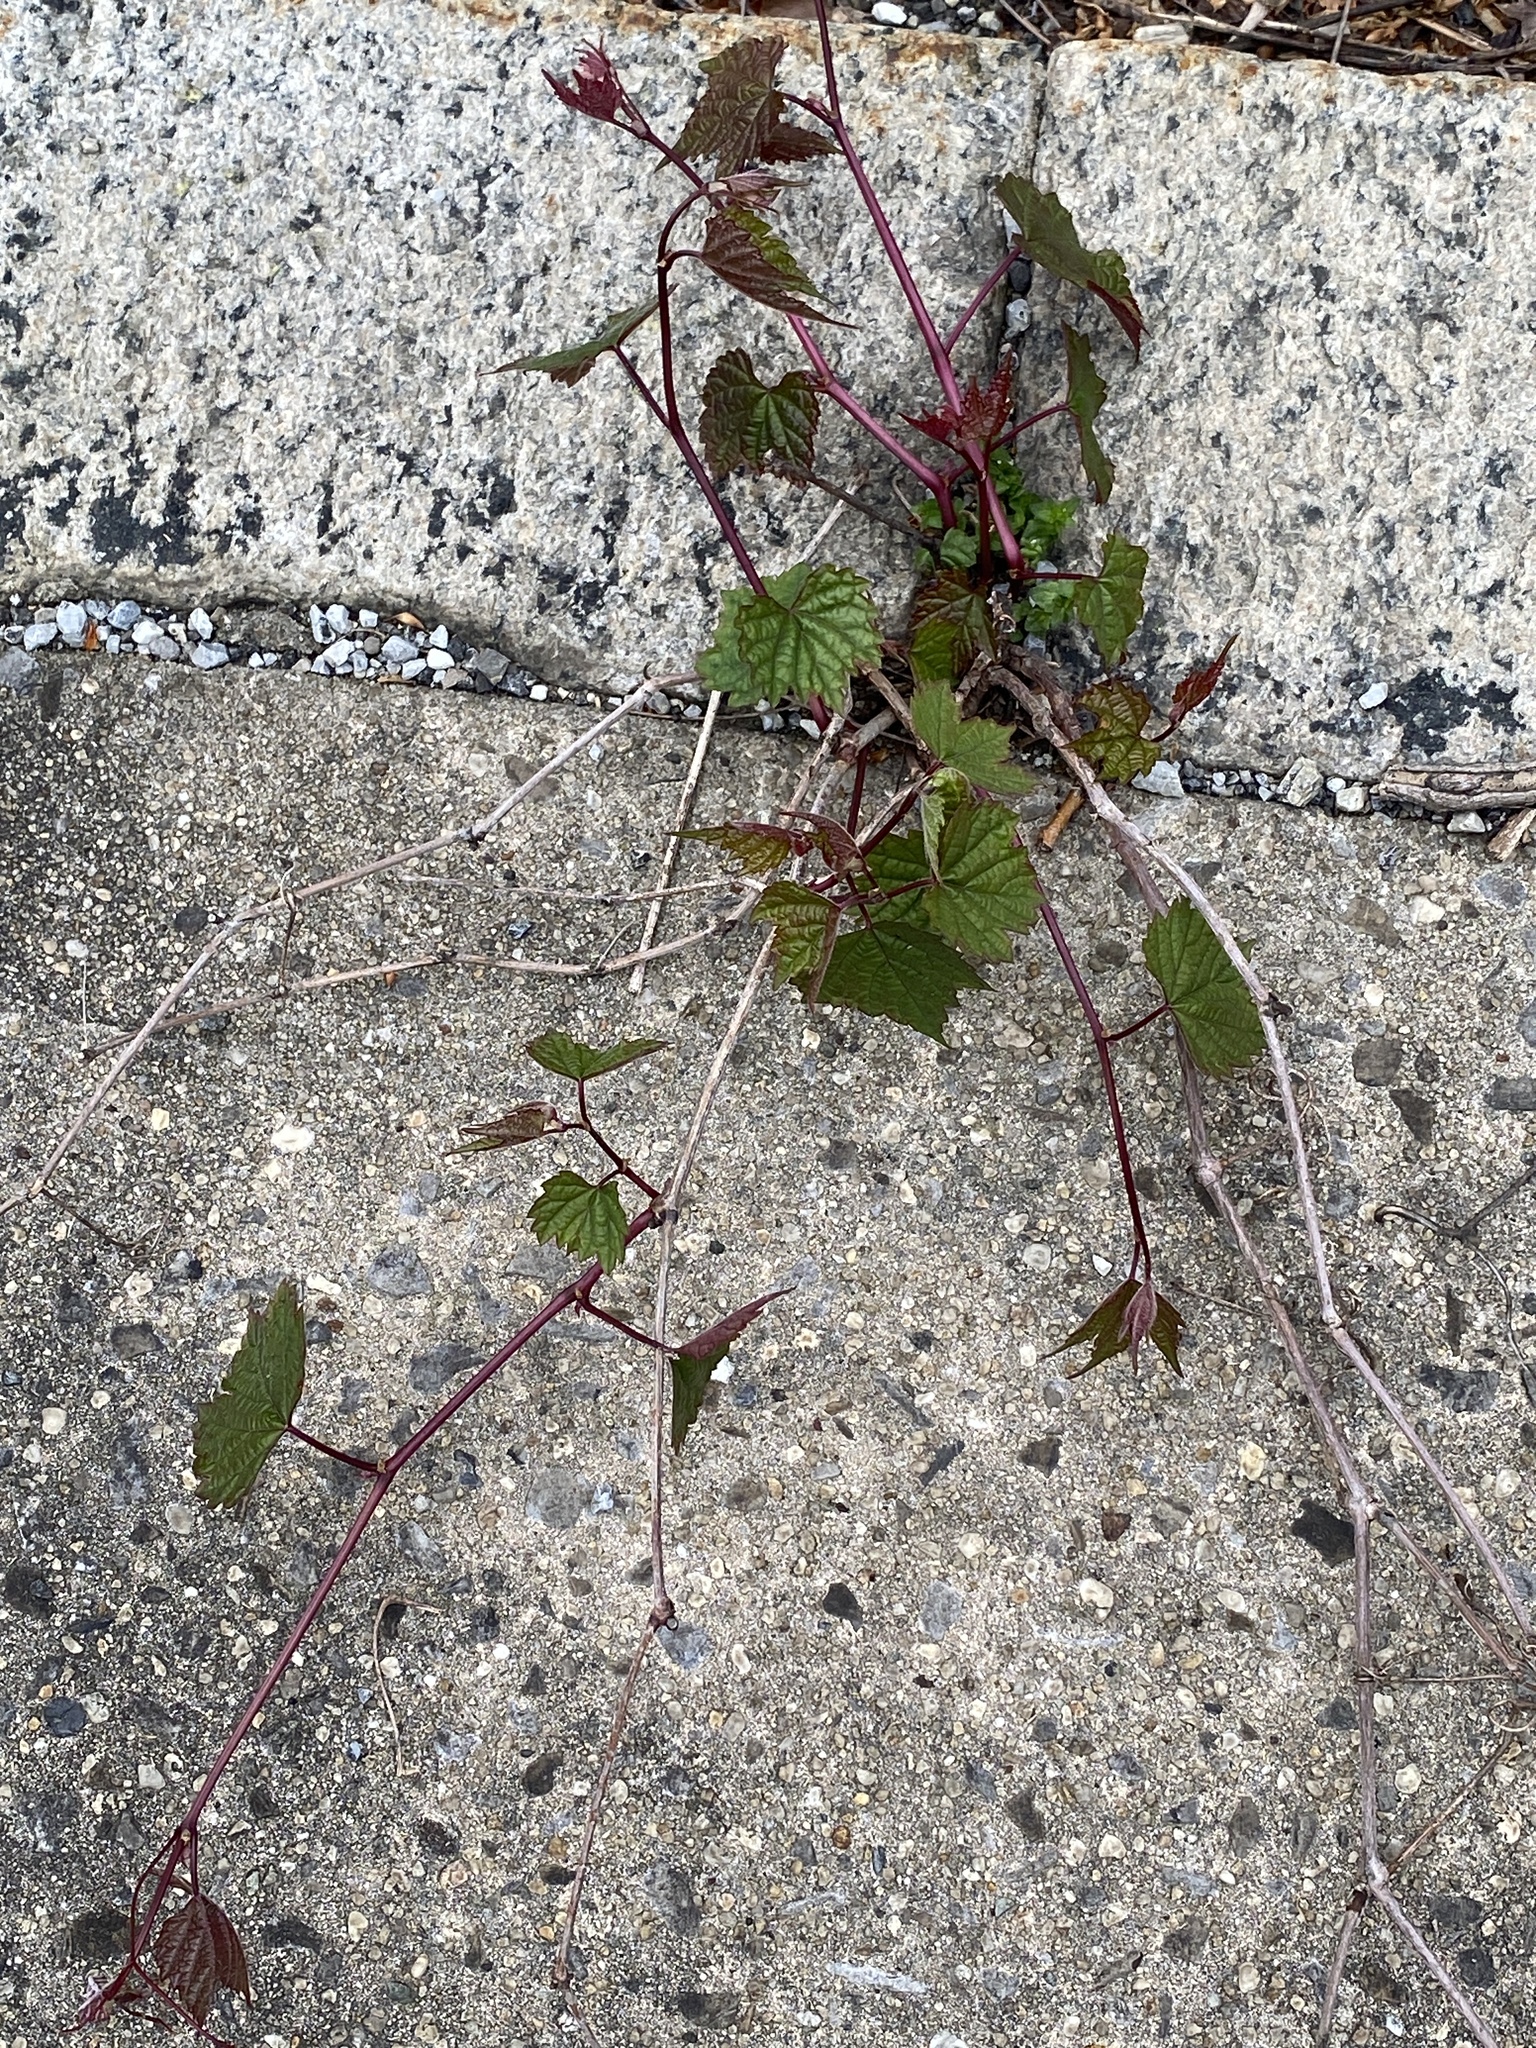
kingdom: Plantae
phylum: Tracheophyta
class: Magnoliopsida
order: Vitales
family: Vitaceae
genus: Ampelopsis
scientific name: Ampelopsis glandulosa
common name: Amur peppervine
